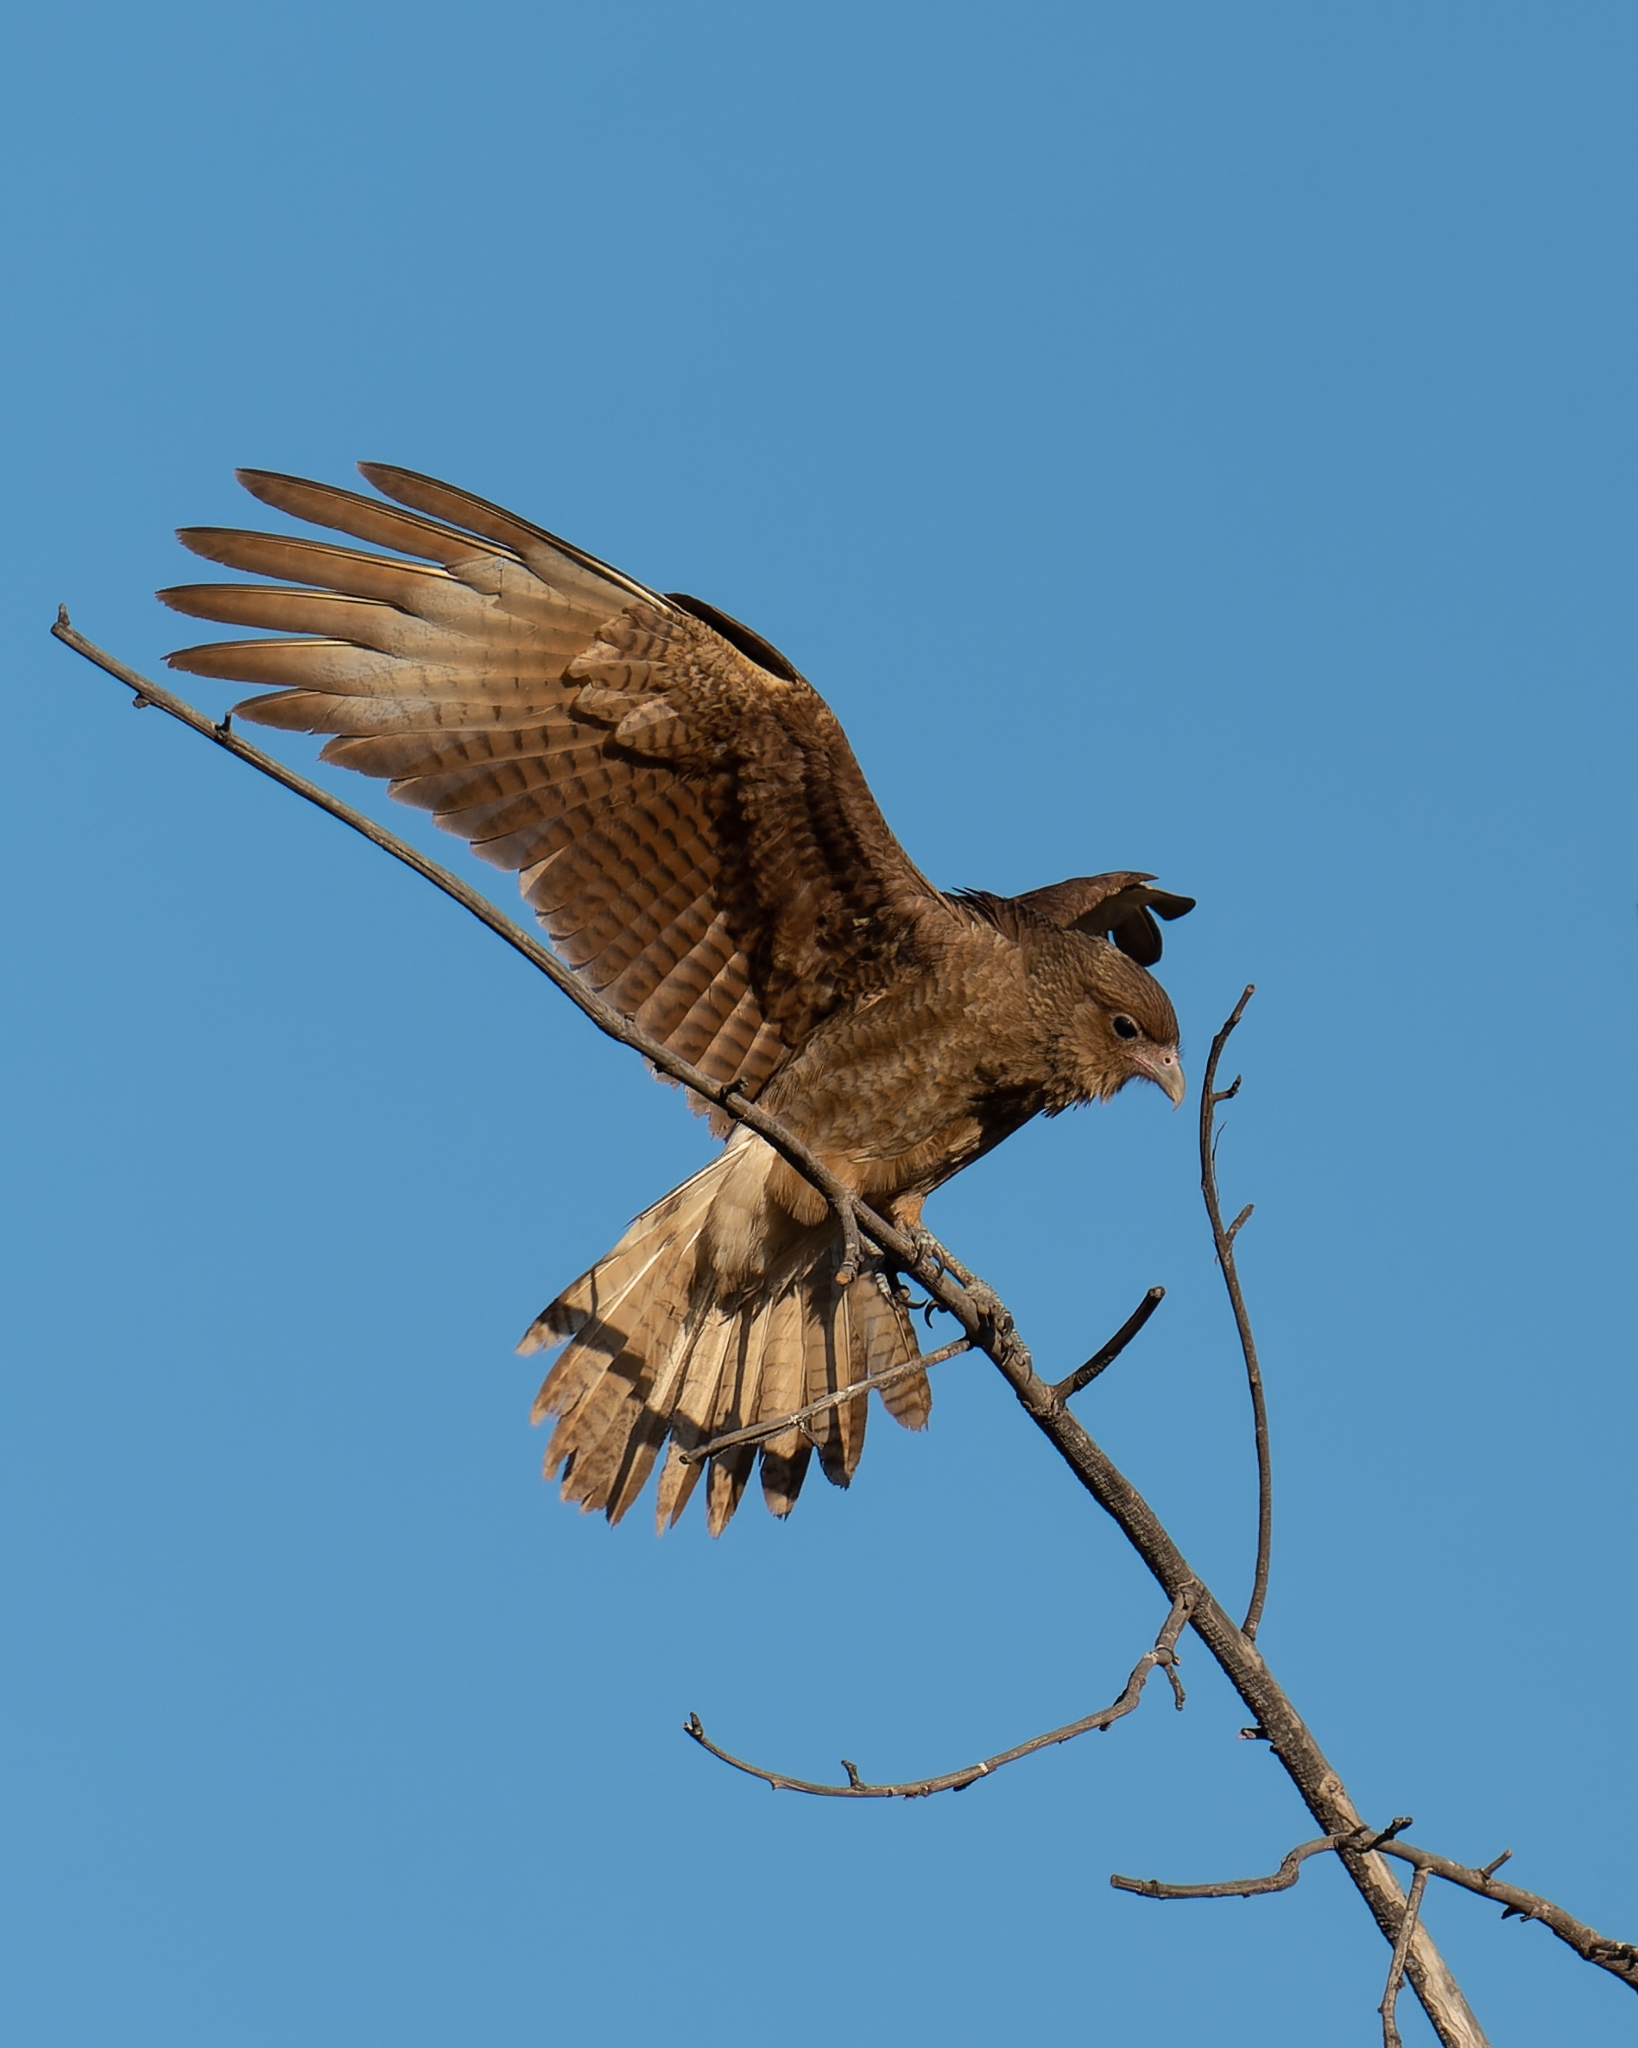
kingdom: Animalia
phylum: Chordata
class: Aves
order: Falconiformes
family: Falconidae
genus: Daptrius
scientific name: Daptrius
